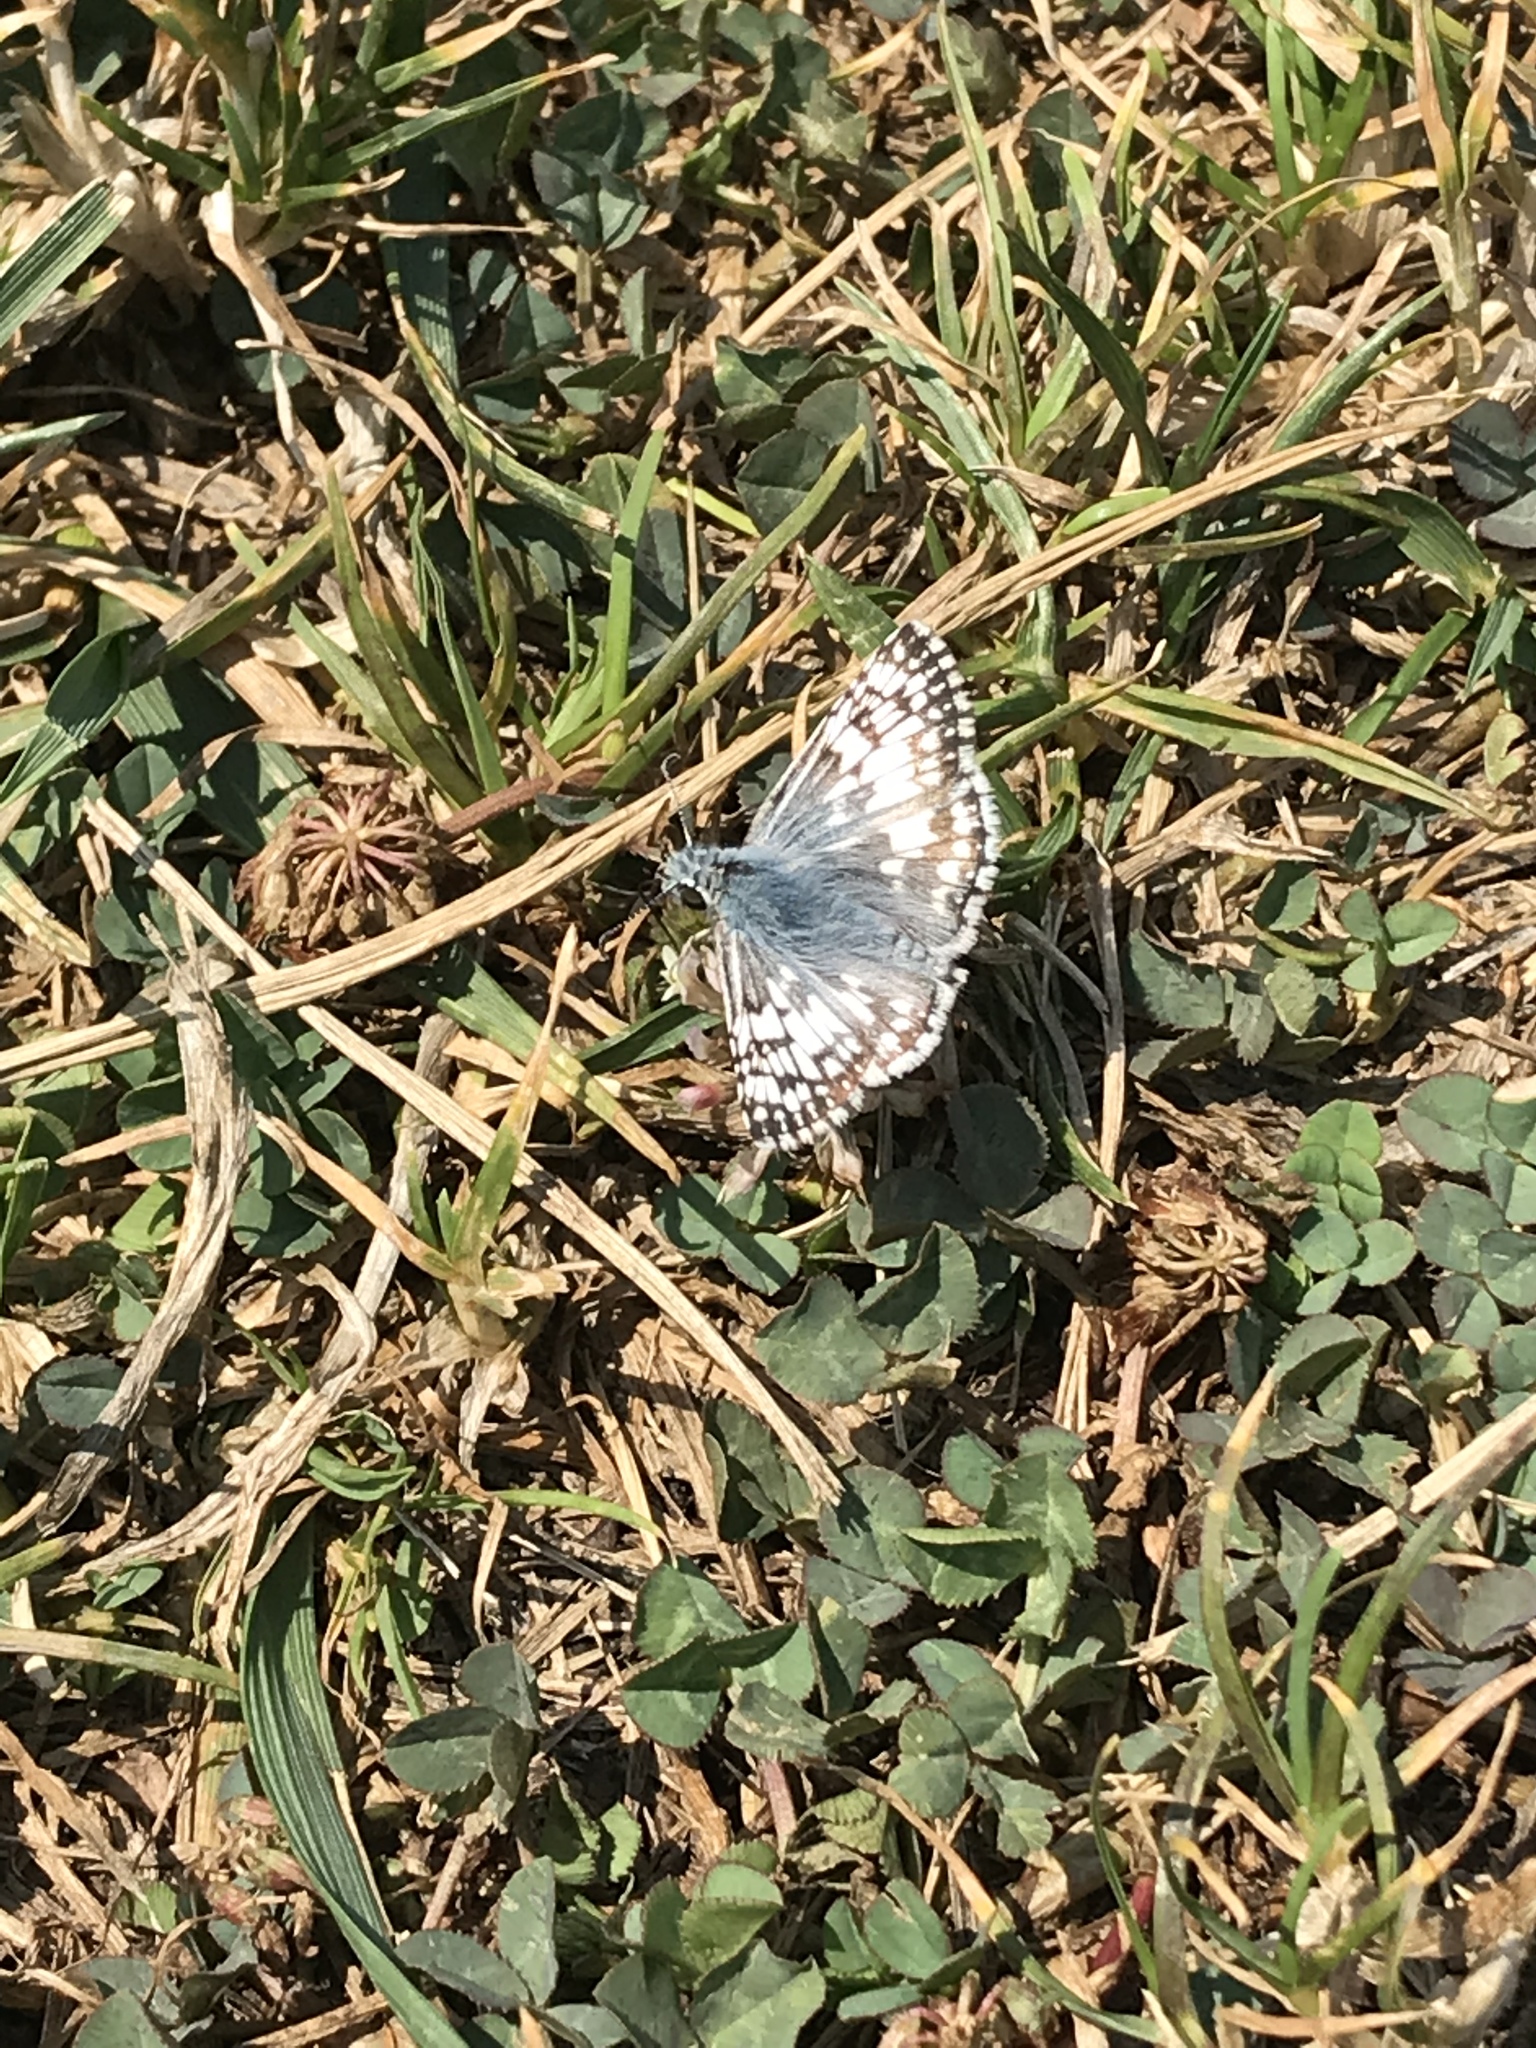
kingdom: Animalia
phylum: Arthropoda
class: Insecta
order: Lepidoptera
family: Hesperiidae
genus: Burnsius
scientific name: Burnsius communis
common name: Common checkered-skipper
